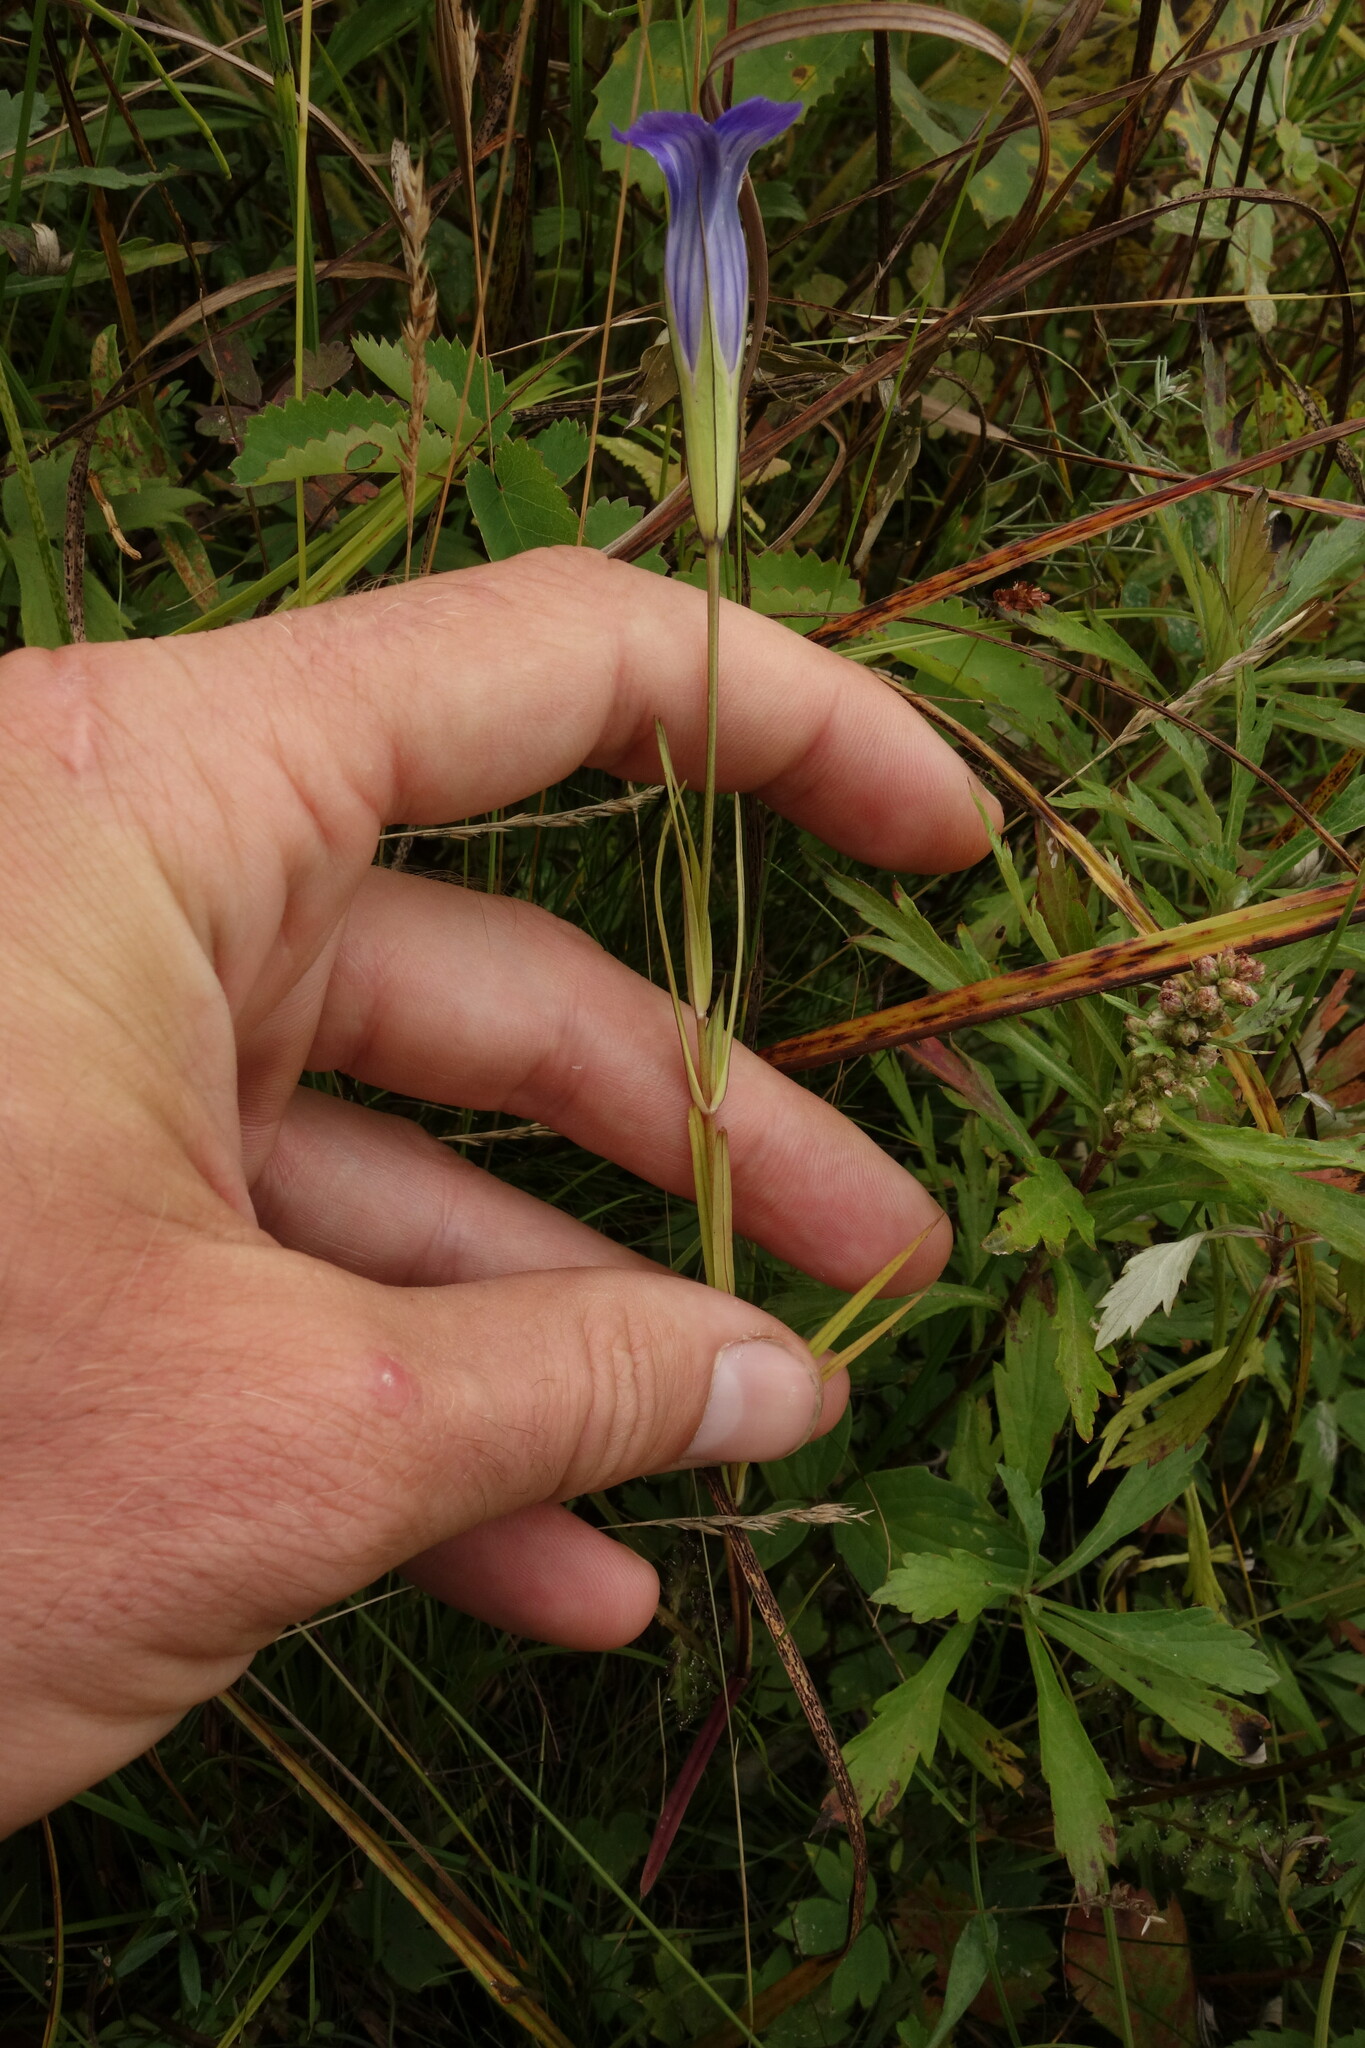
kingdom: Plantae
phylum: Tracheophyta
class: Magnoliopsida
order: Gentianales
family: Gentianaceae
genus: Gentianopsis
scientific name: Gentianopsis barbata
